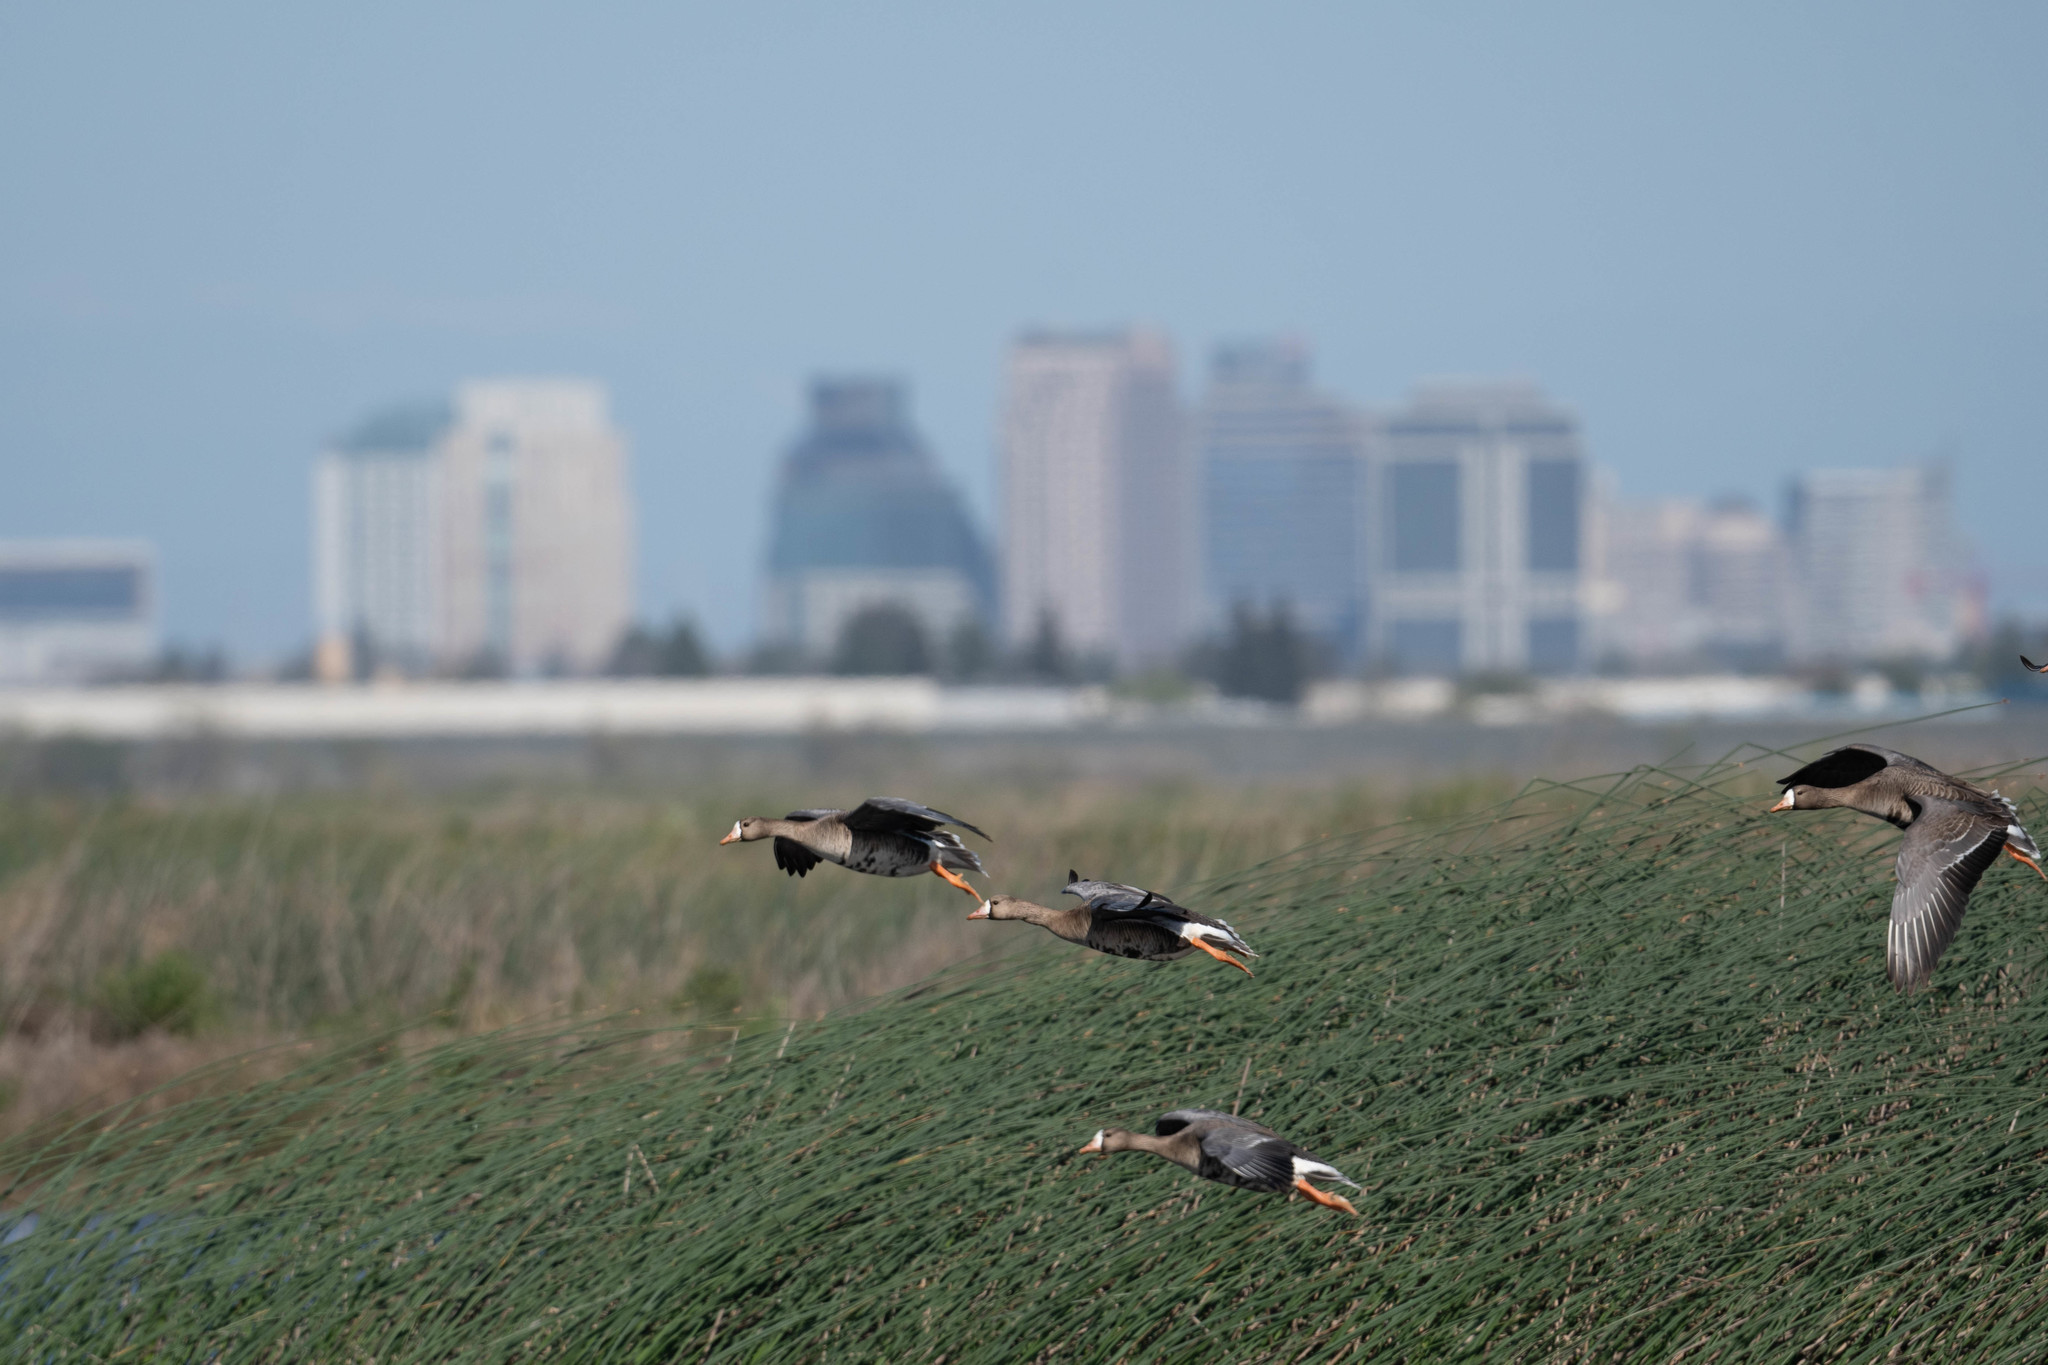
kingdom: Animalia
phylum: Chordata
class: Aves
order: Anseriformes
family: Anatidae
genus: Anser
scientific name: Anser albifrons
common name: Greater white-fronted goose
